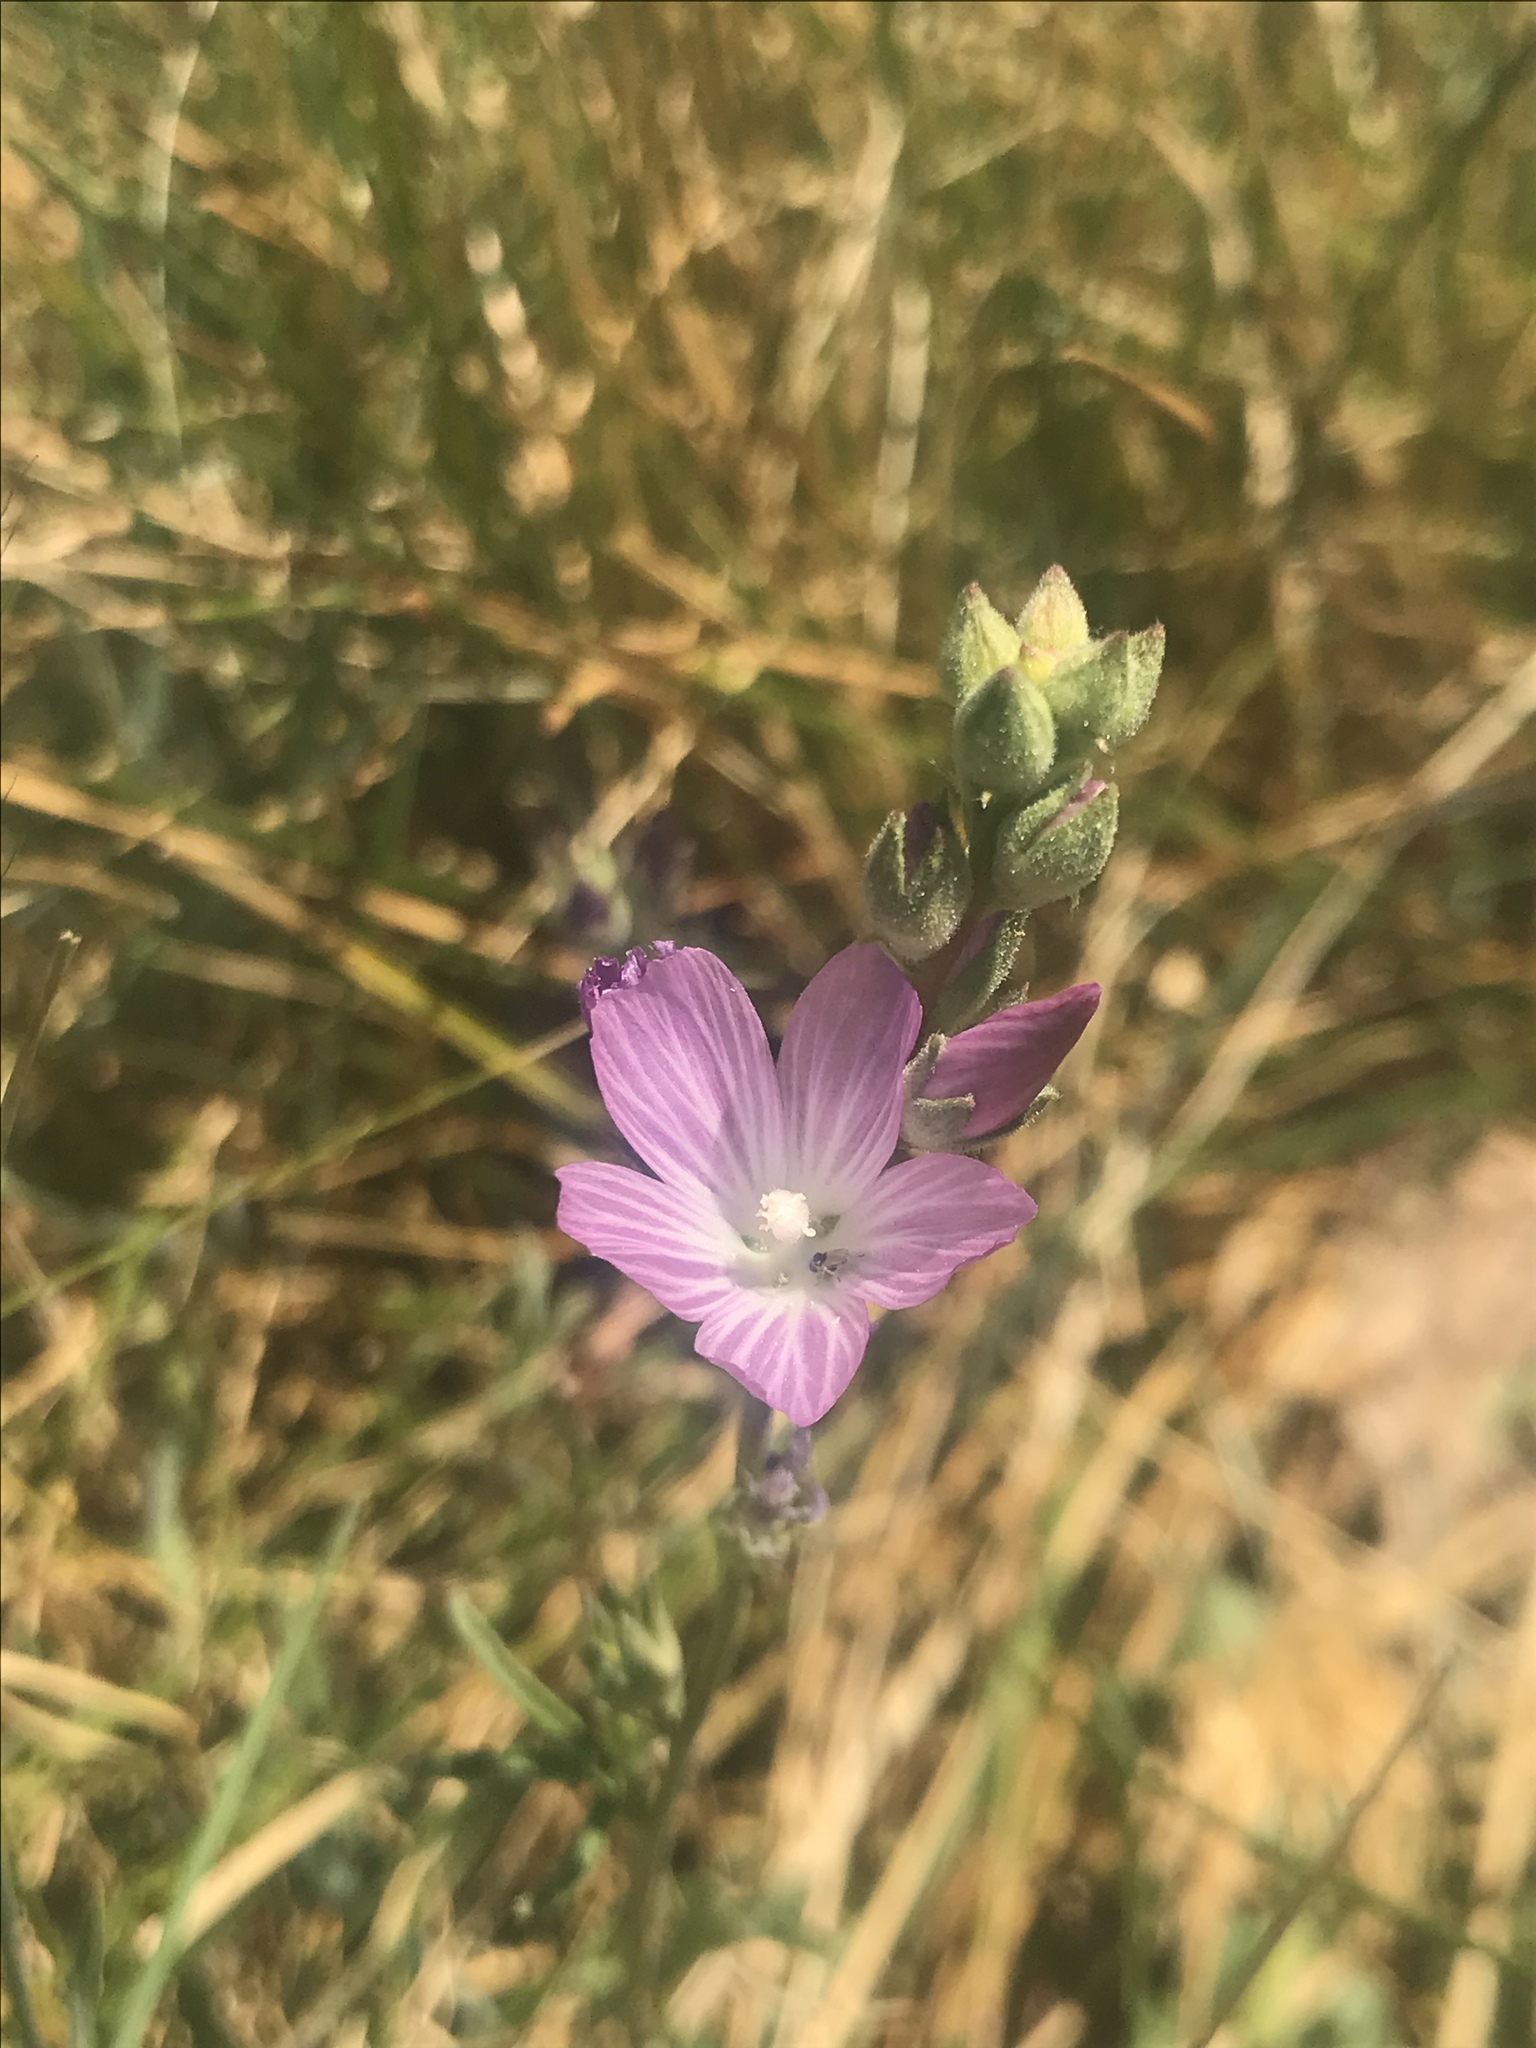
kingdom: Plantae
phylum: Tracheophyta
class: Magnoliopsida
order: Malvales
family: Malvaceae
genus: Sidalcea
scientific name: Sidalcea sparsifolia
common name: Southern checkerbloom
